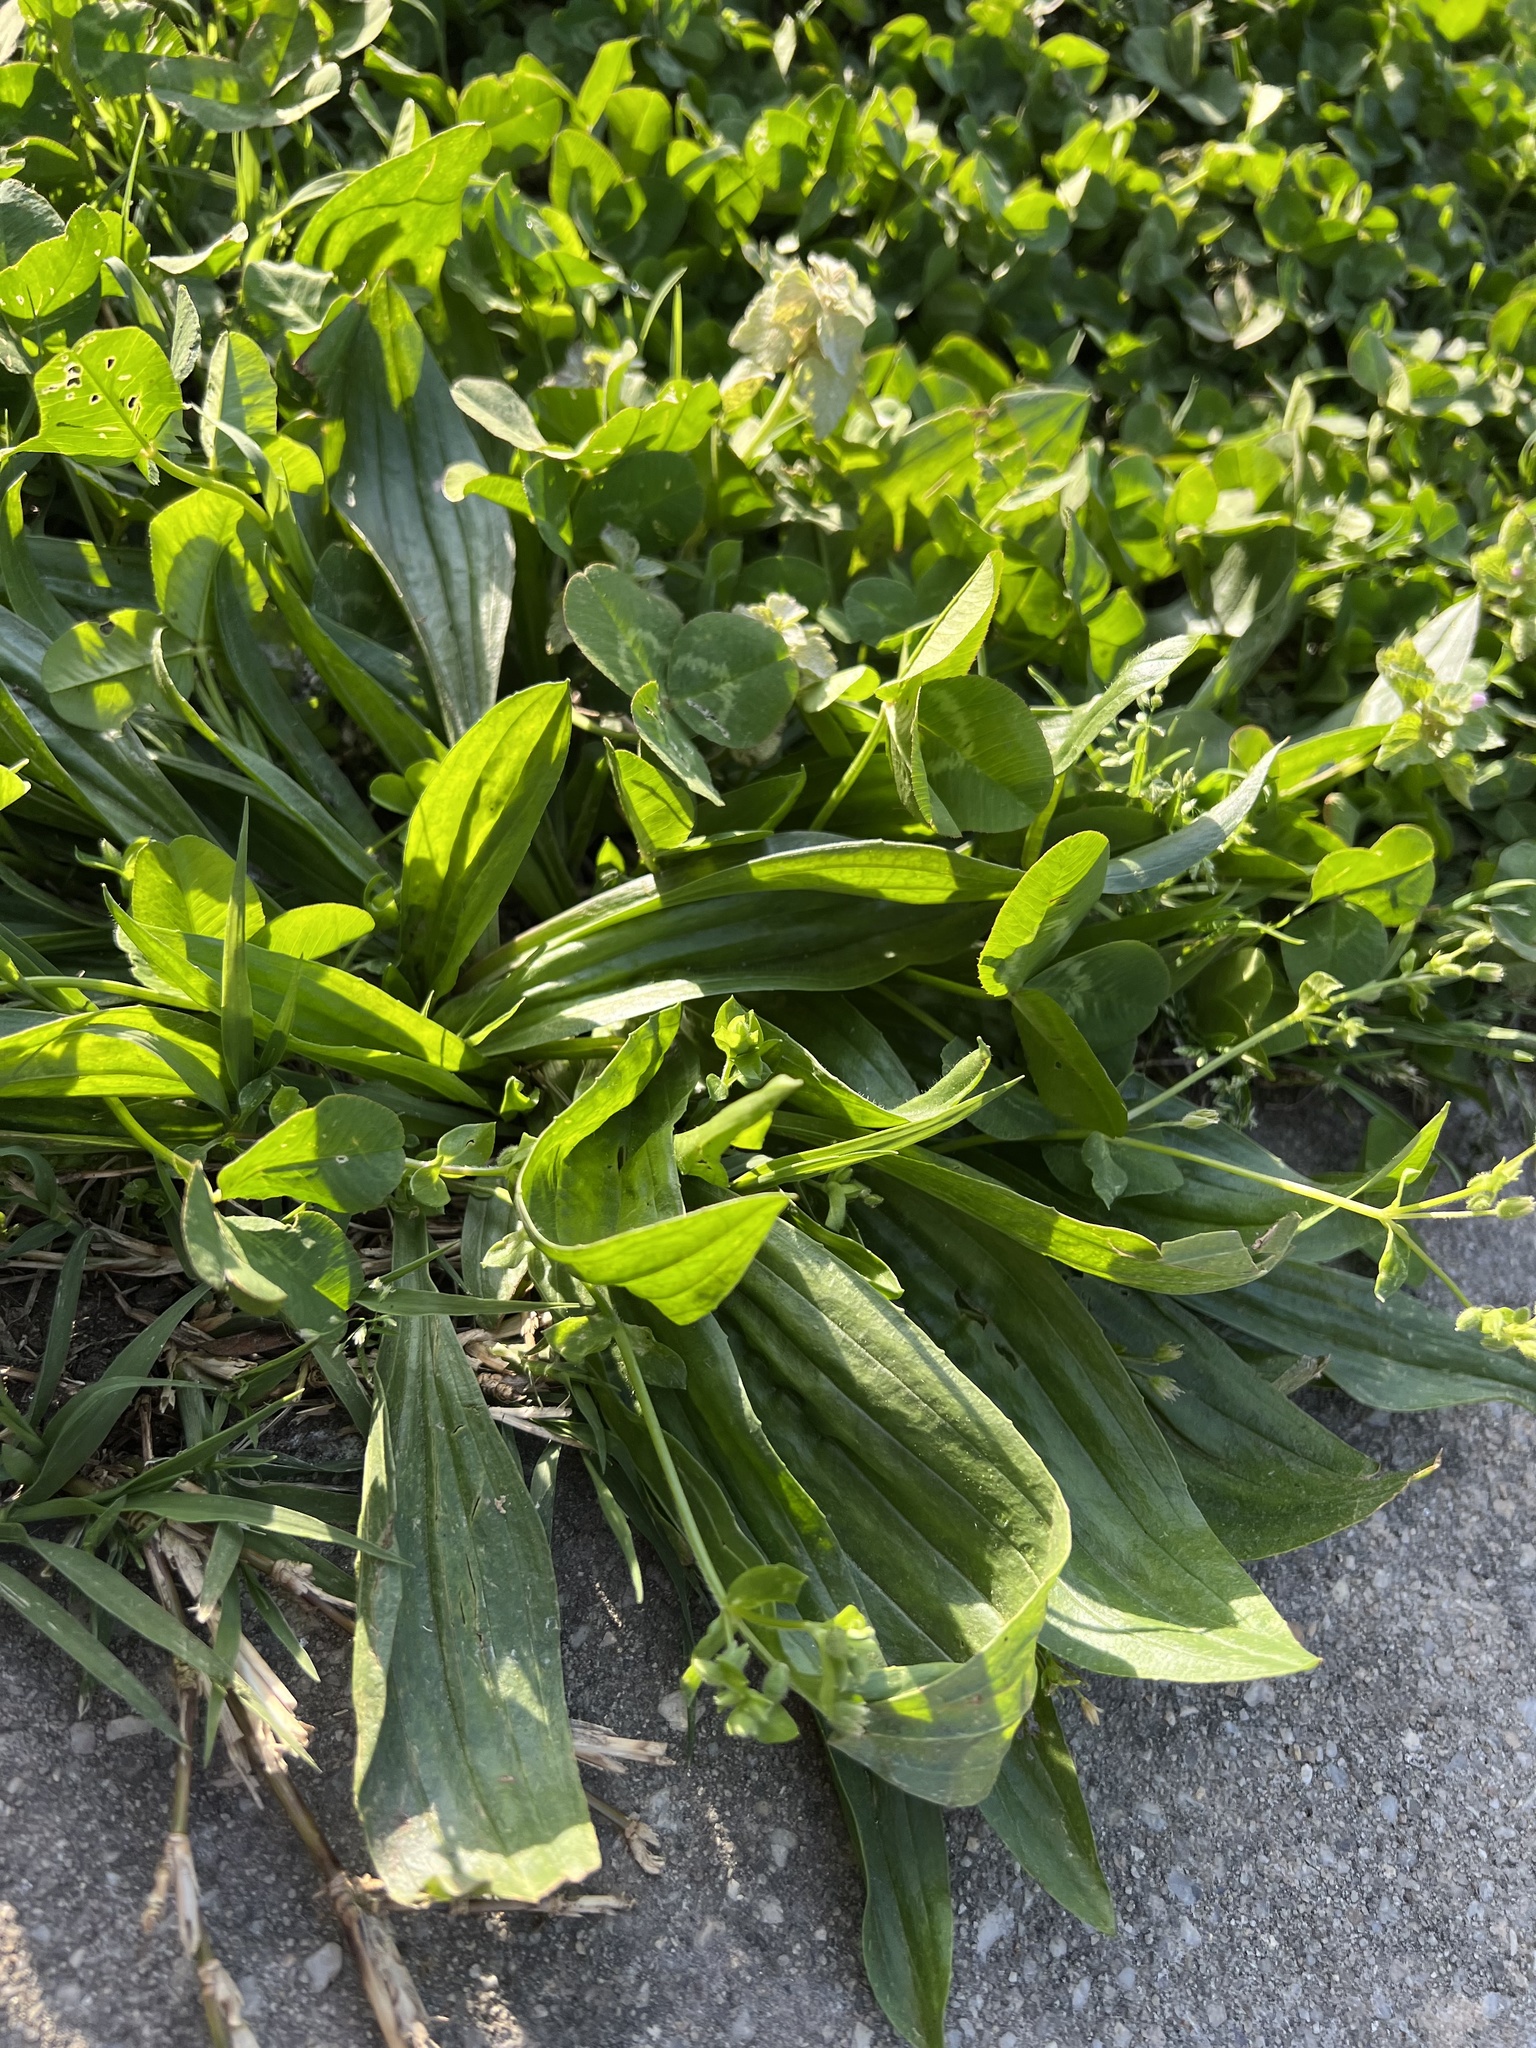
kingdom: Plantae
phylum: Tracheophyta
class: Magnoliopsida
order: Lamiales
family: Plantaginaceae
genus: Plantago
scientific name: Plantago lanceolata
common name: Ribwort plantain
